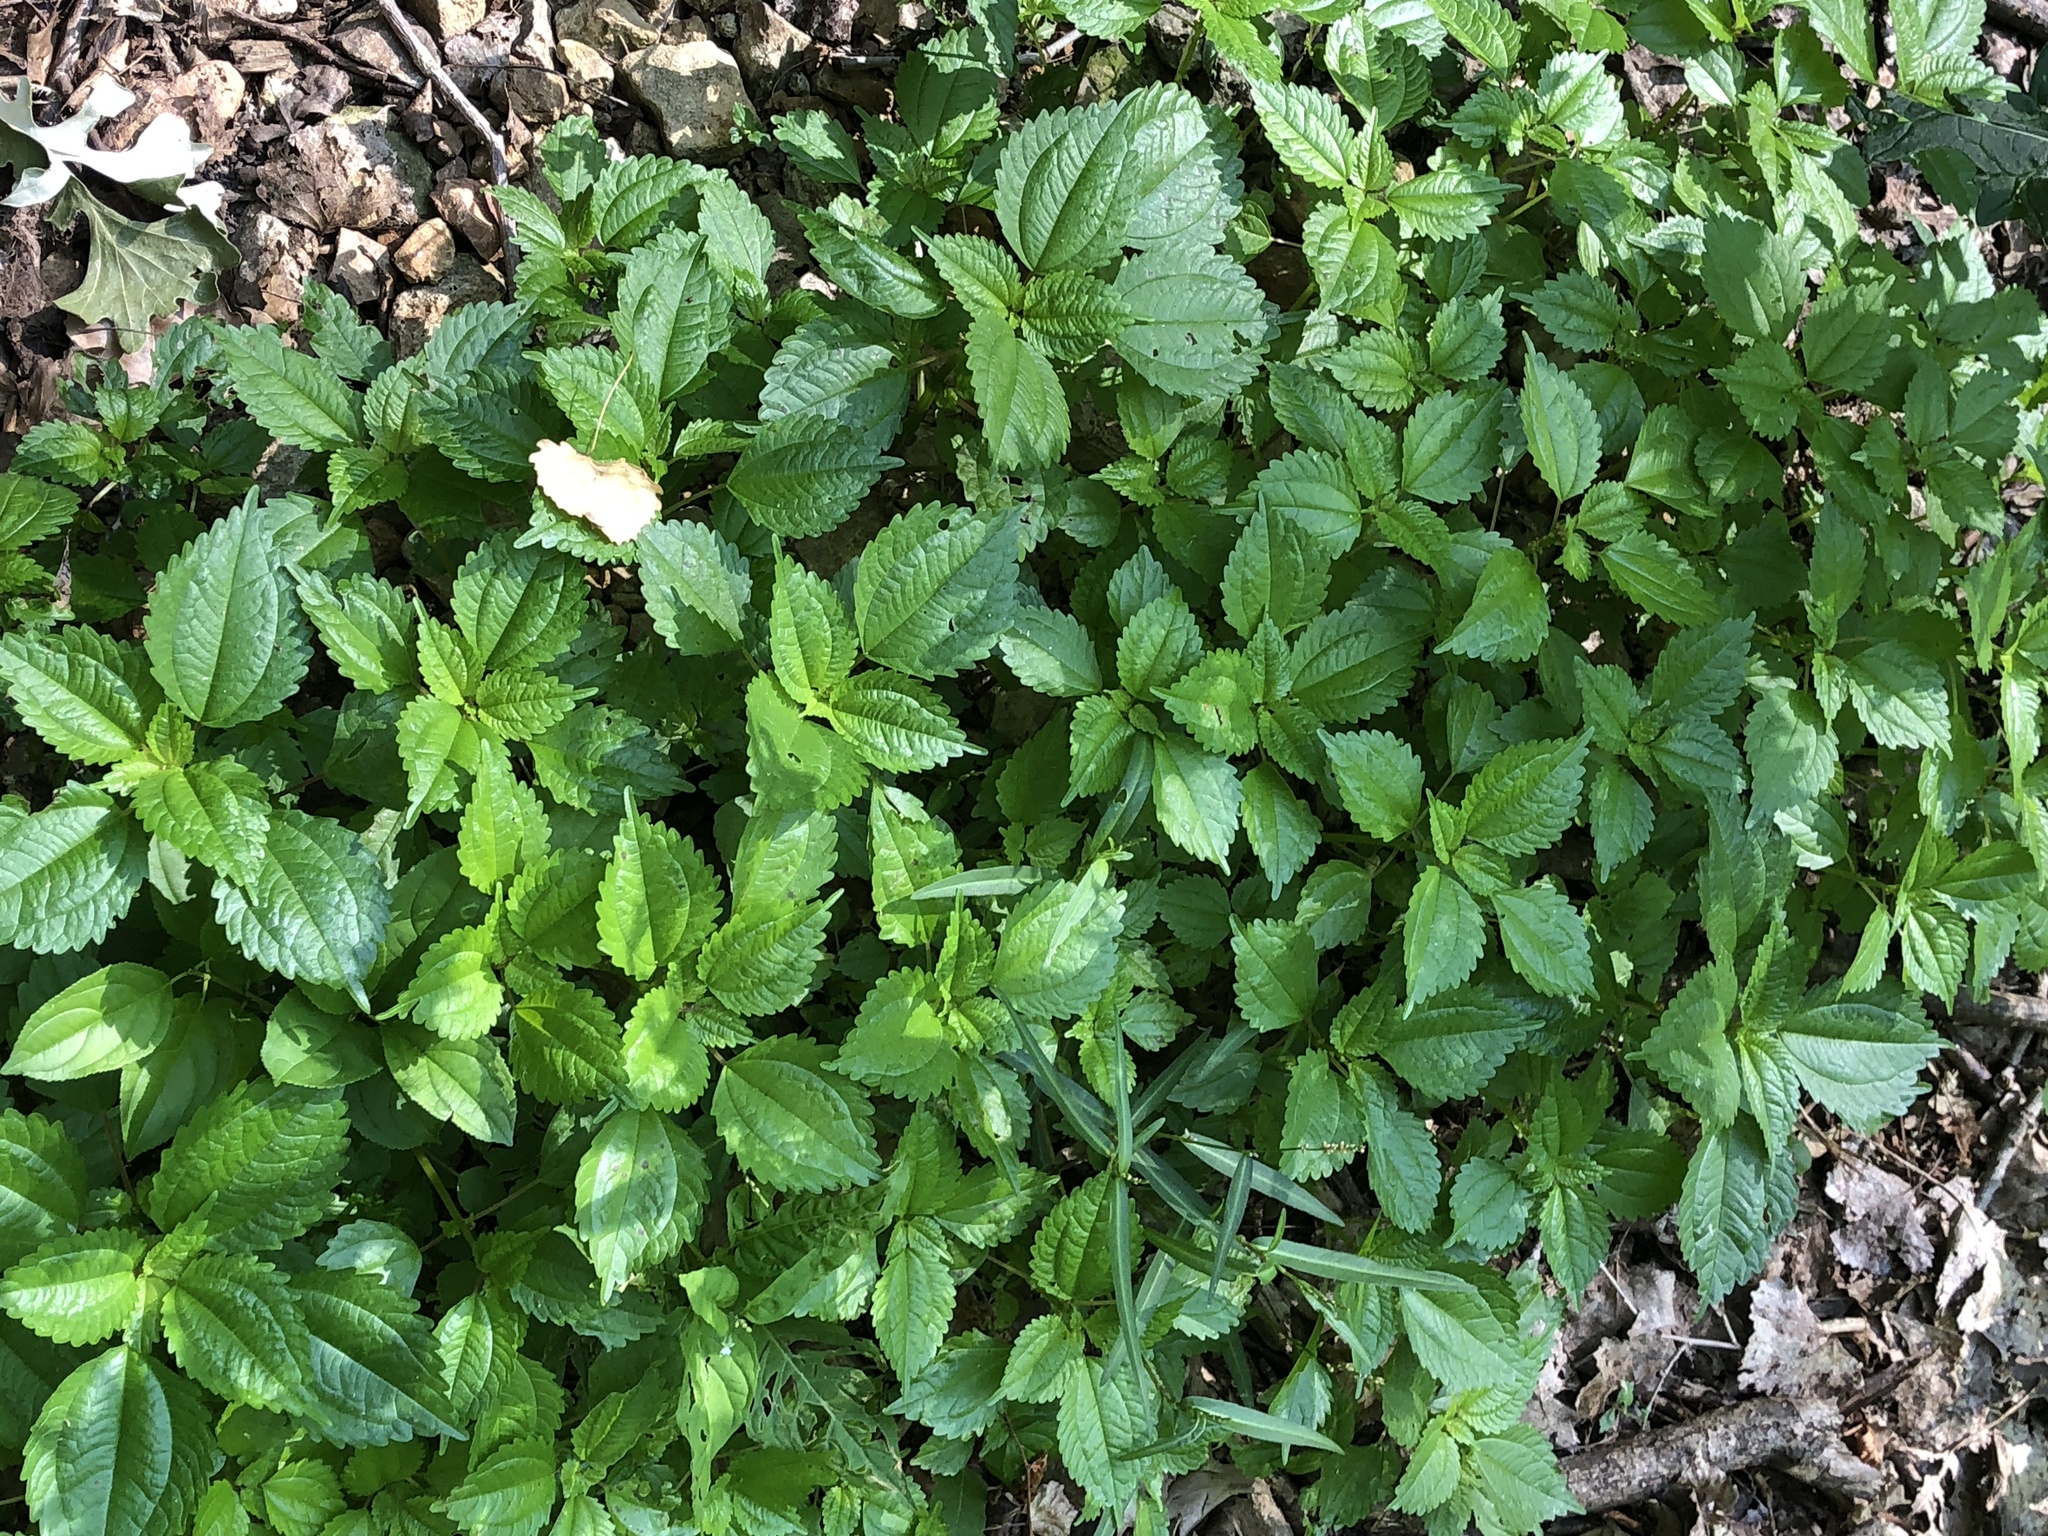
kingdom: Plantae
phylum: Tracheophyta
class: Magnoliopsida
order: Rosales
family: Urticaceae
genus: Pilea
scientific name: Pilea pumila
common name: Clearweed
